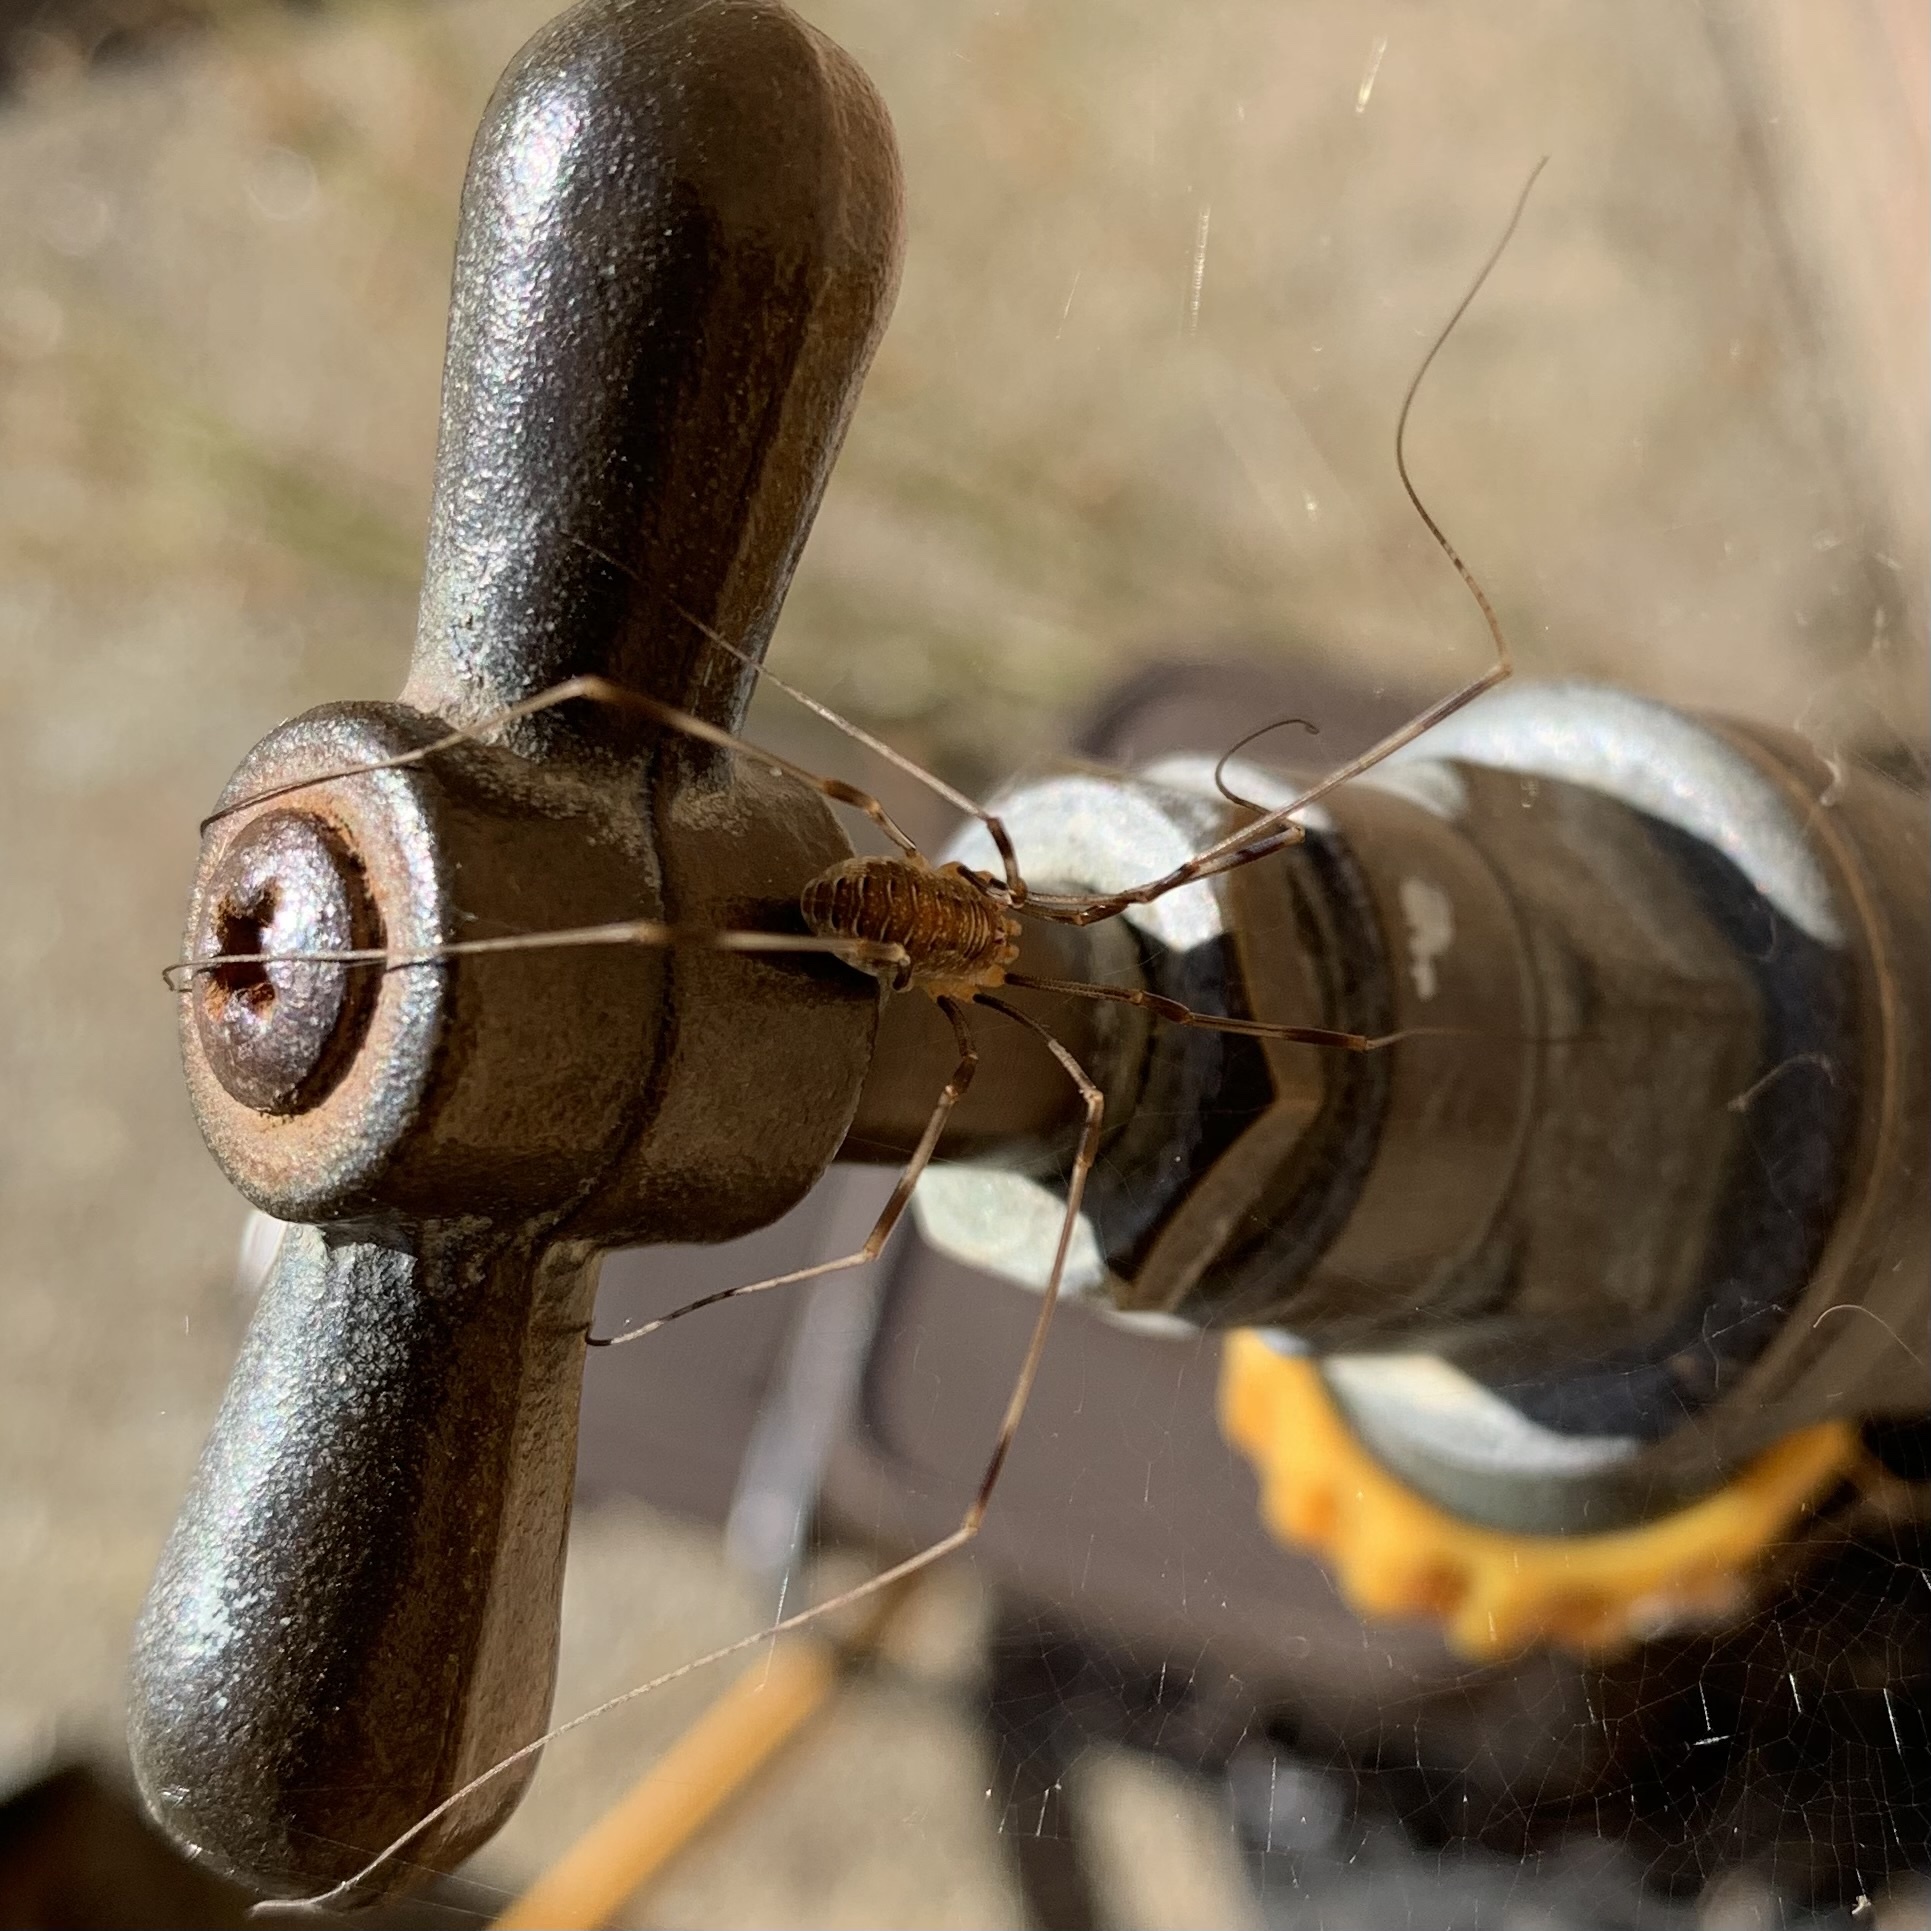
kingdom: Animalia
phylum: Arthropoda
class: Arachnida
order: Opiliones
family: Phalangiidae
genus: Opilio
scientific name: Opilio canestrinii
